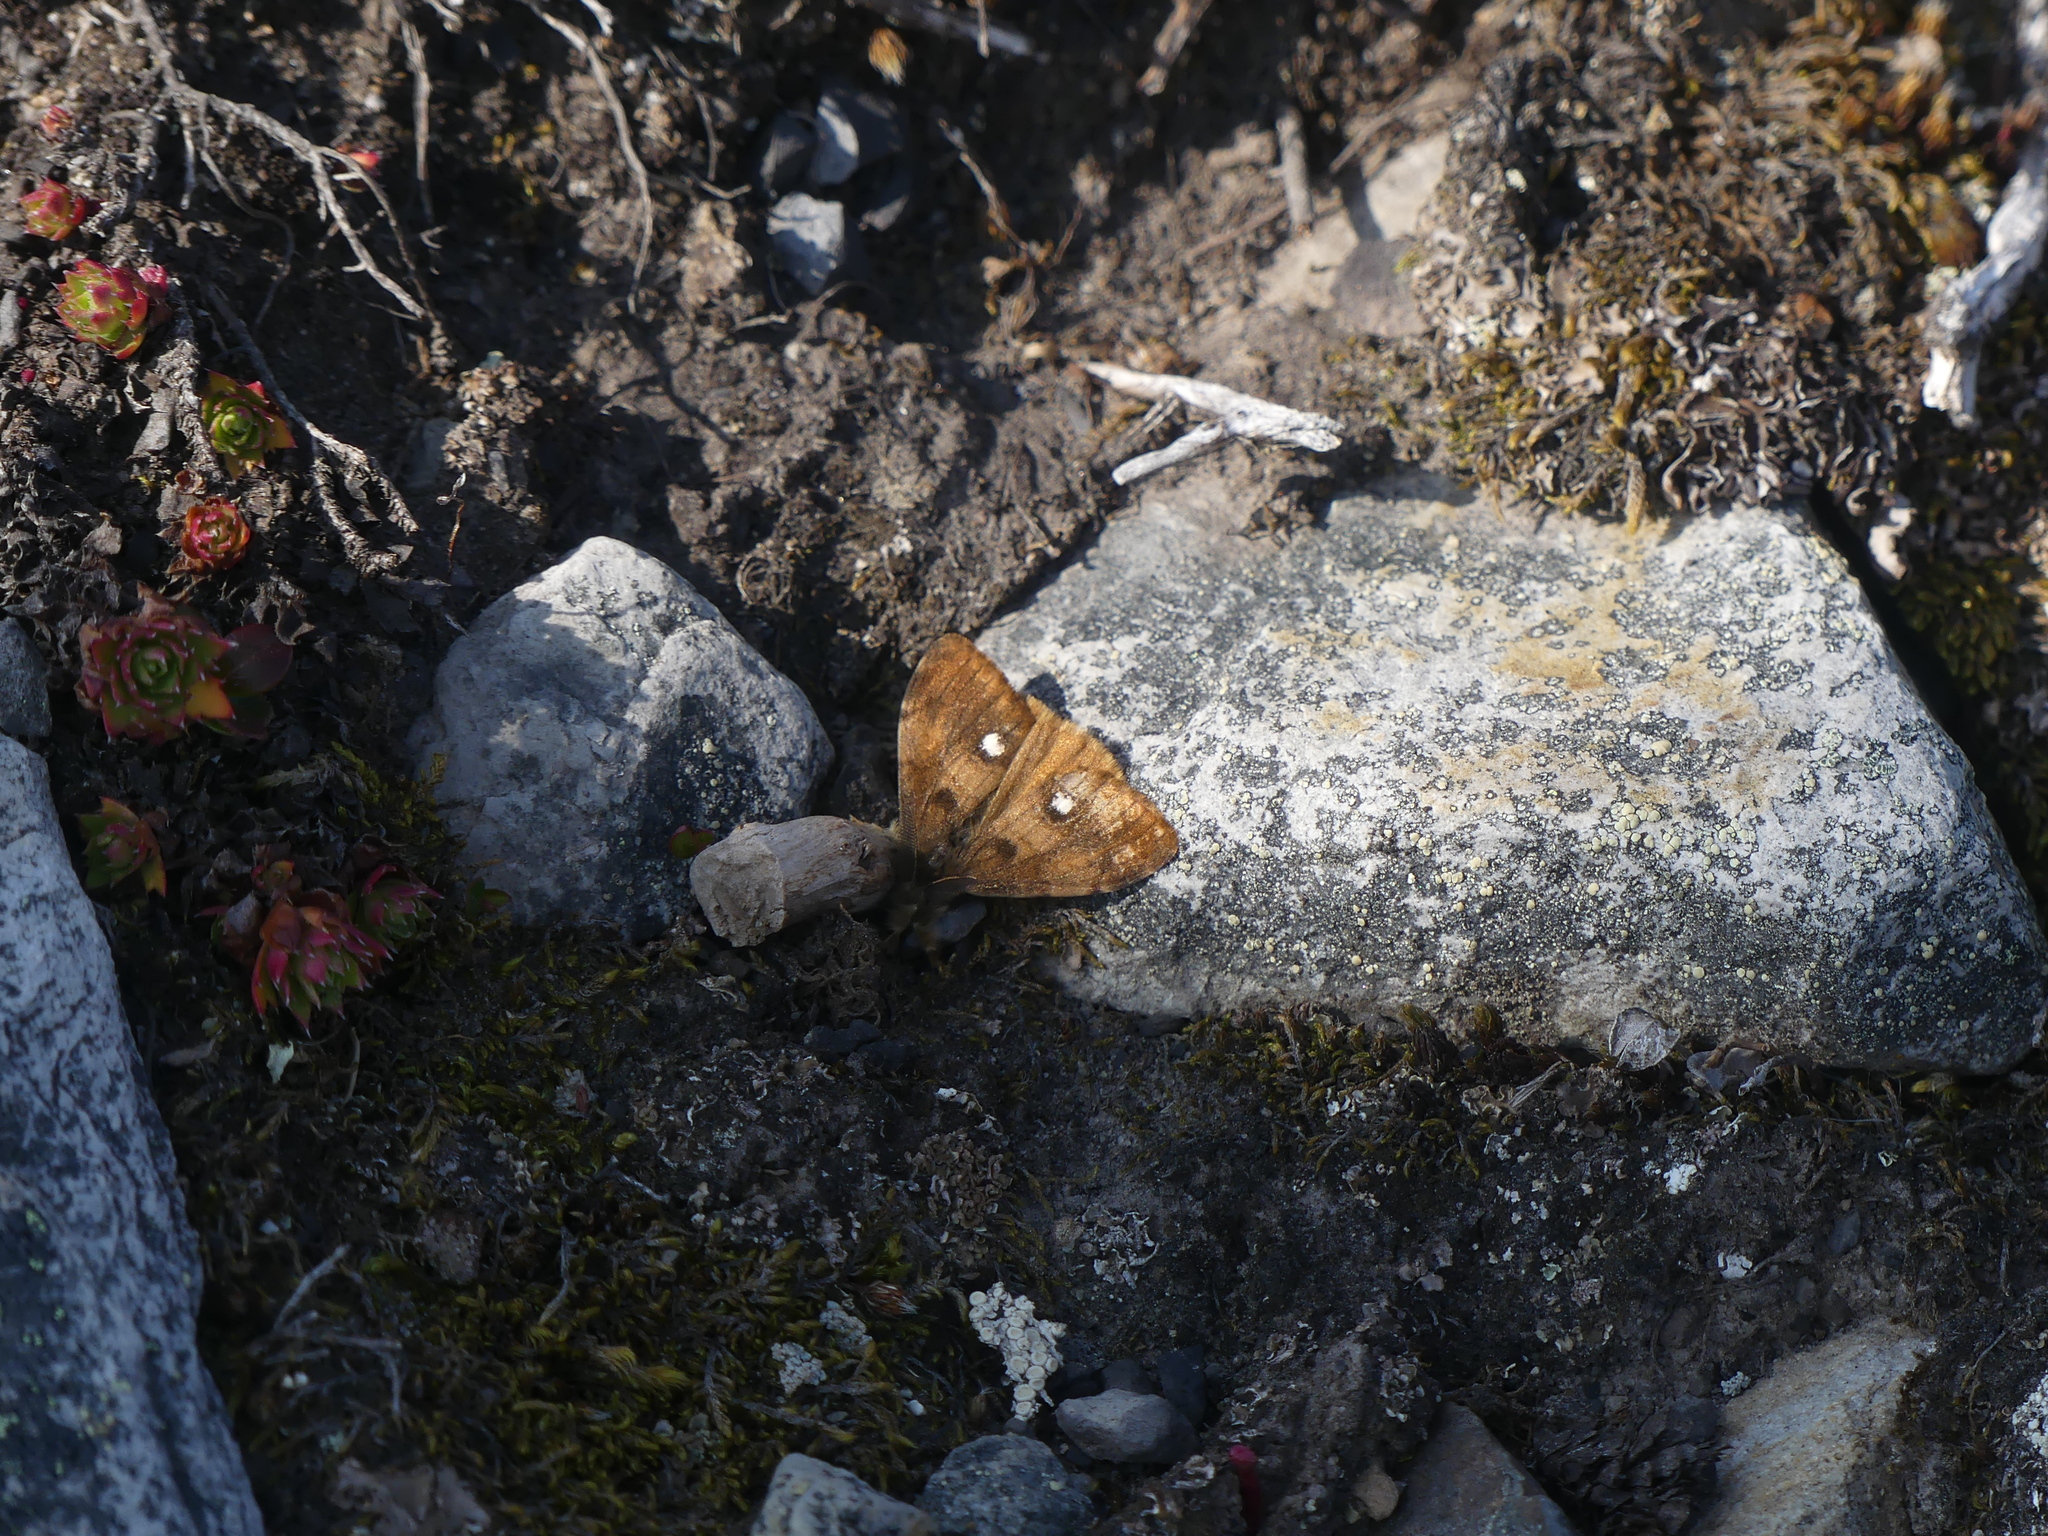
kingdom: Animalia
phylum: Arthropoda
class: Insecta
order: Lepidoptera
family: Erebidae
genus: Orgyia
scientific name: Orgyia antiqua
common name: Vapourer
